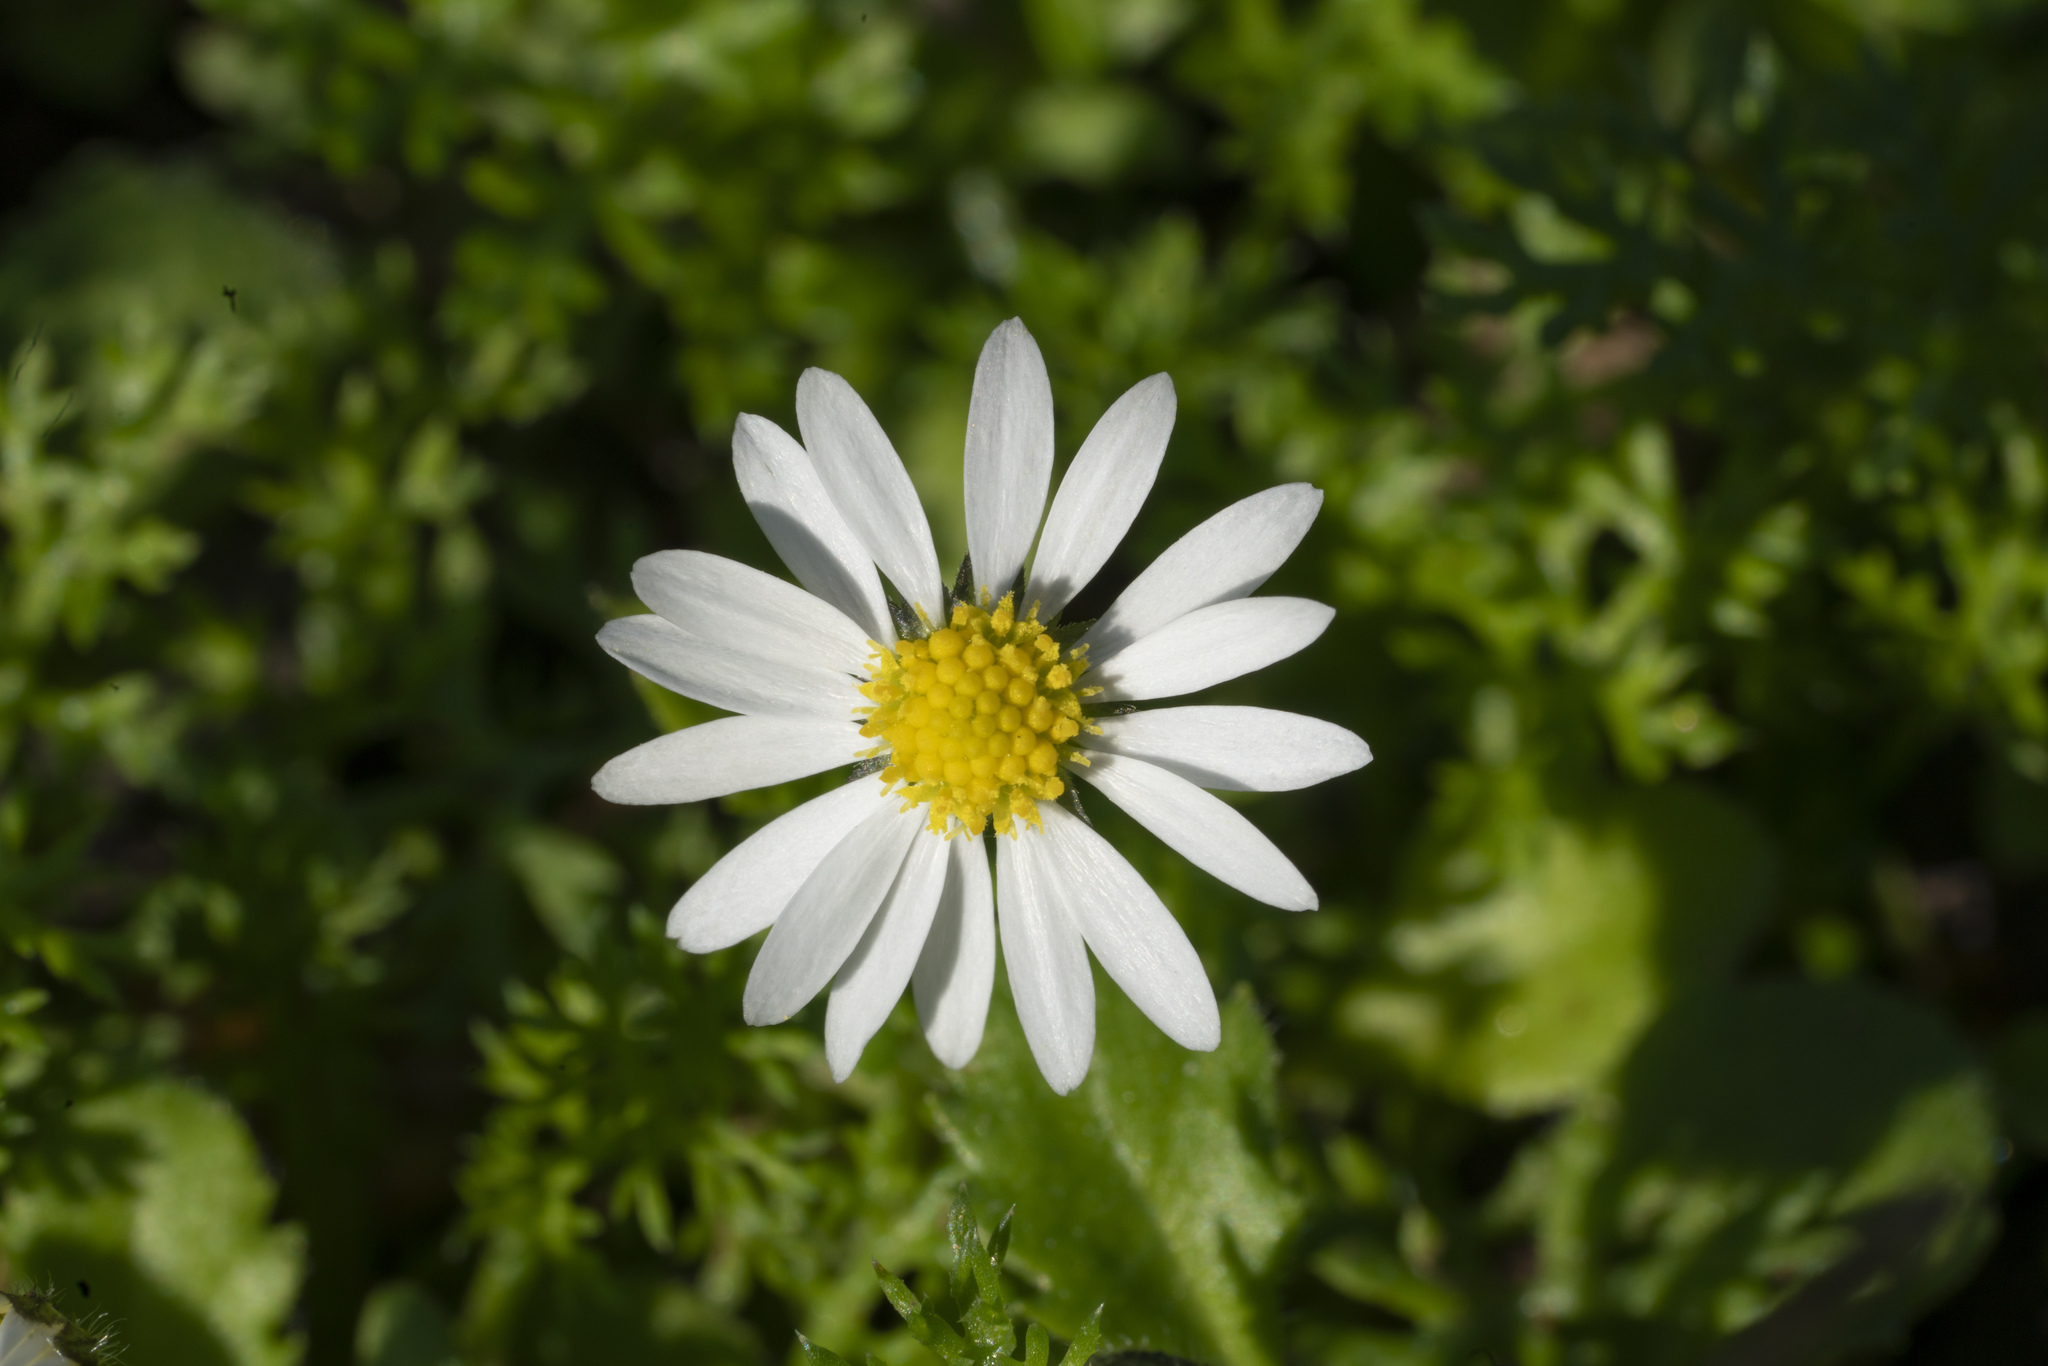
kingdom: Plantae
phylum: Tracheophyta
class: Magnoliopsida
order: Asterales
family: Asteraceae
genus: Anthemis
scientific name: Anthemis
